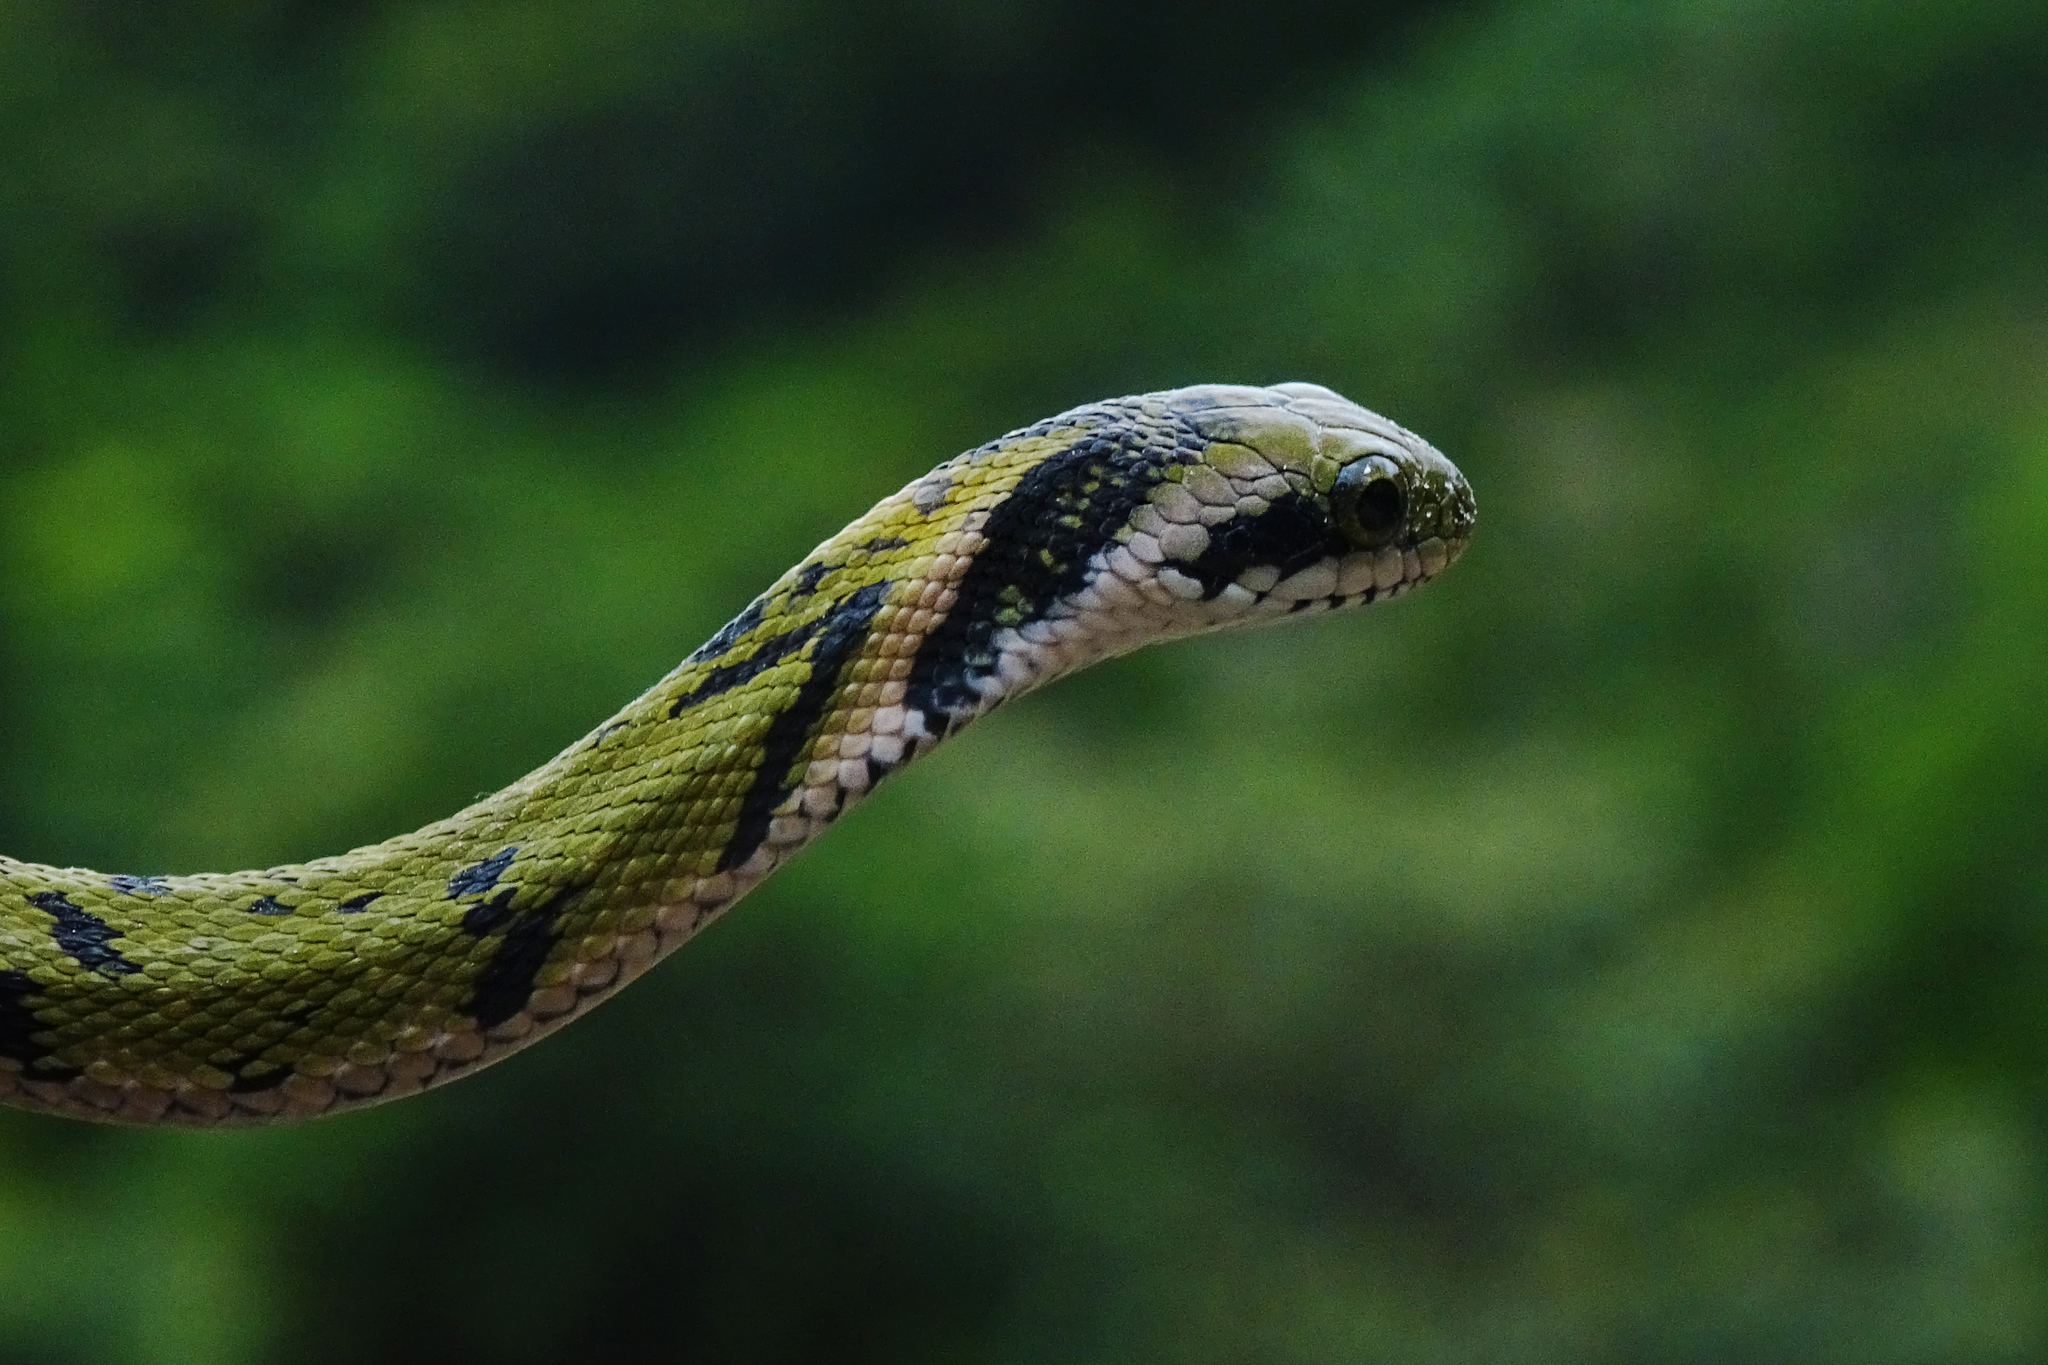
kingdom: Animalia
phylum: Chordata
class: Squamata
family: Colubridae
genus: Rhabdophis
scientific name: Rhabdophis plumbicolor
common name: Green keelback
